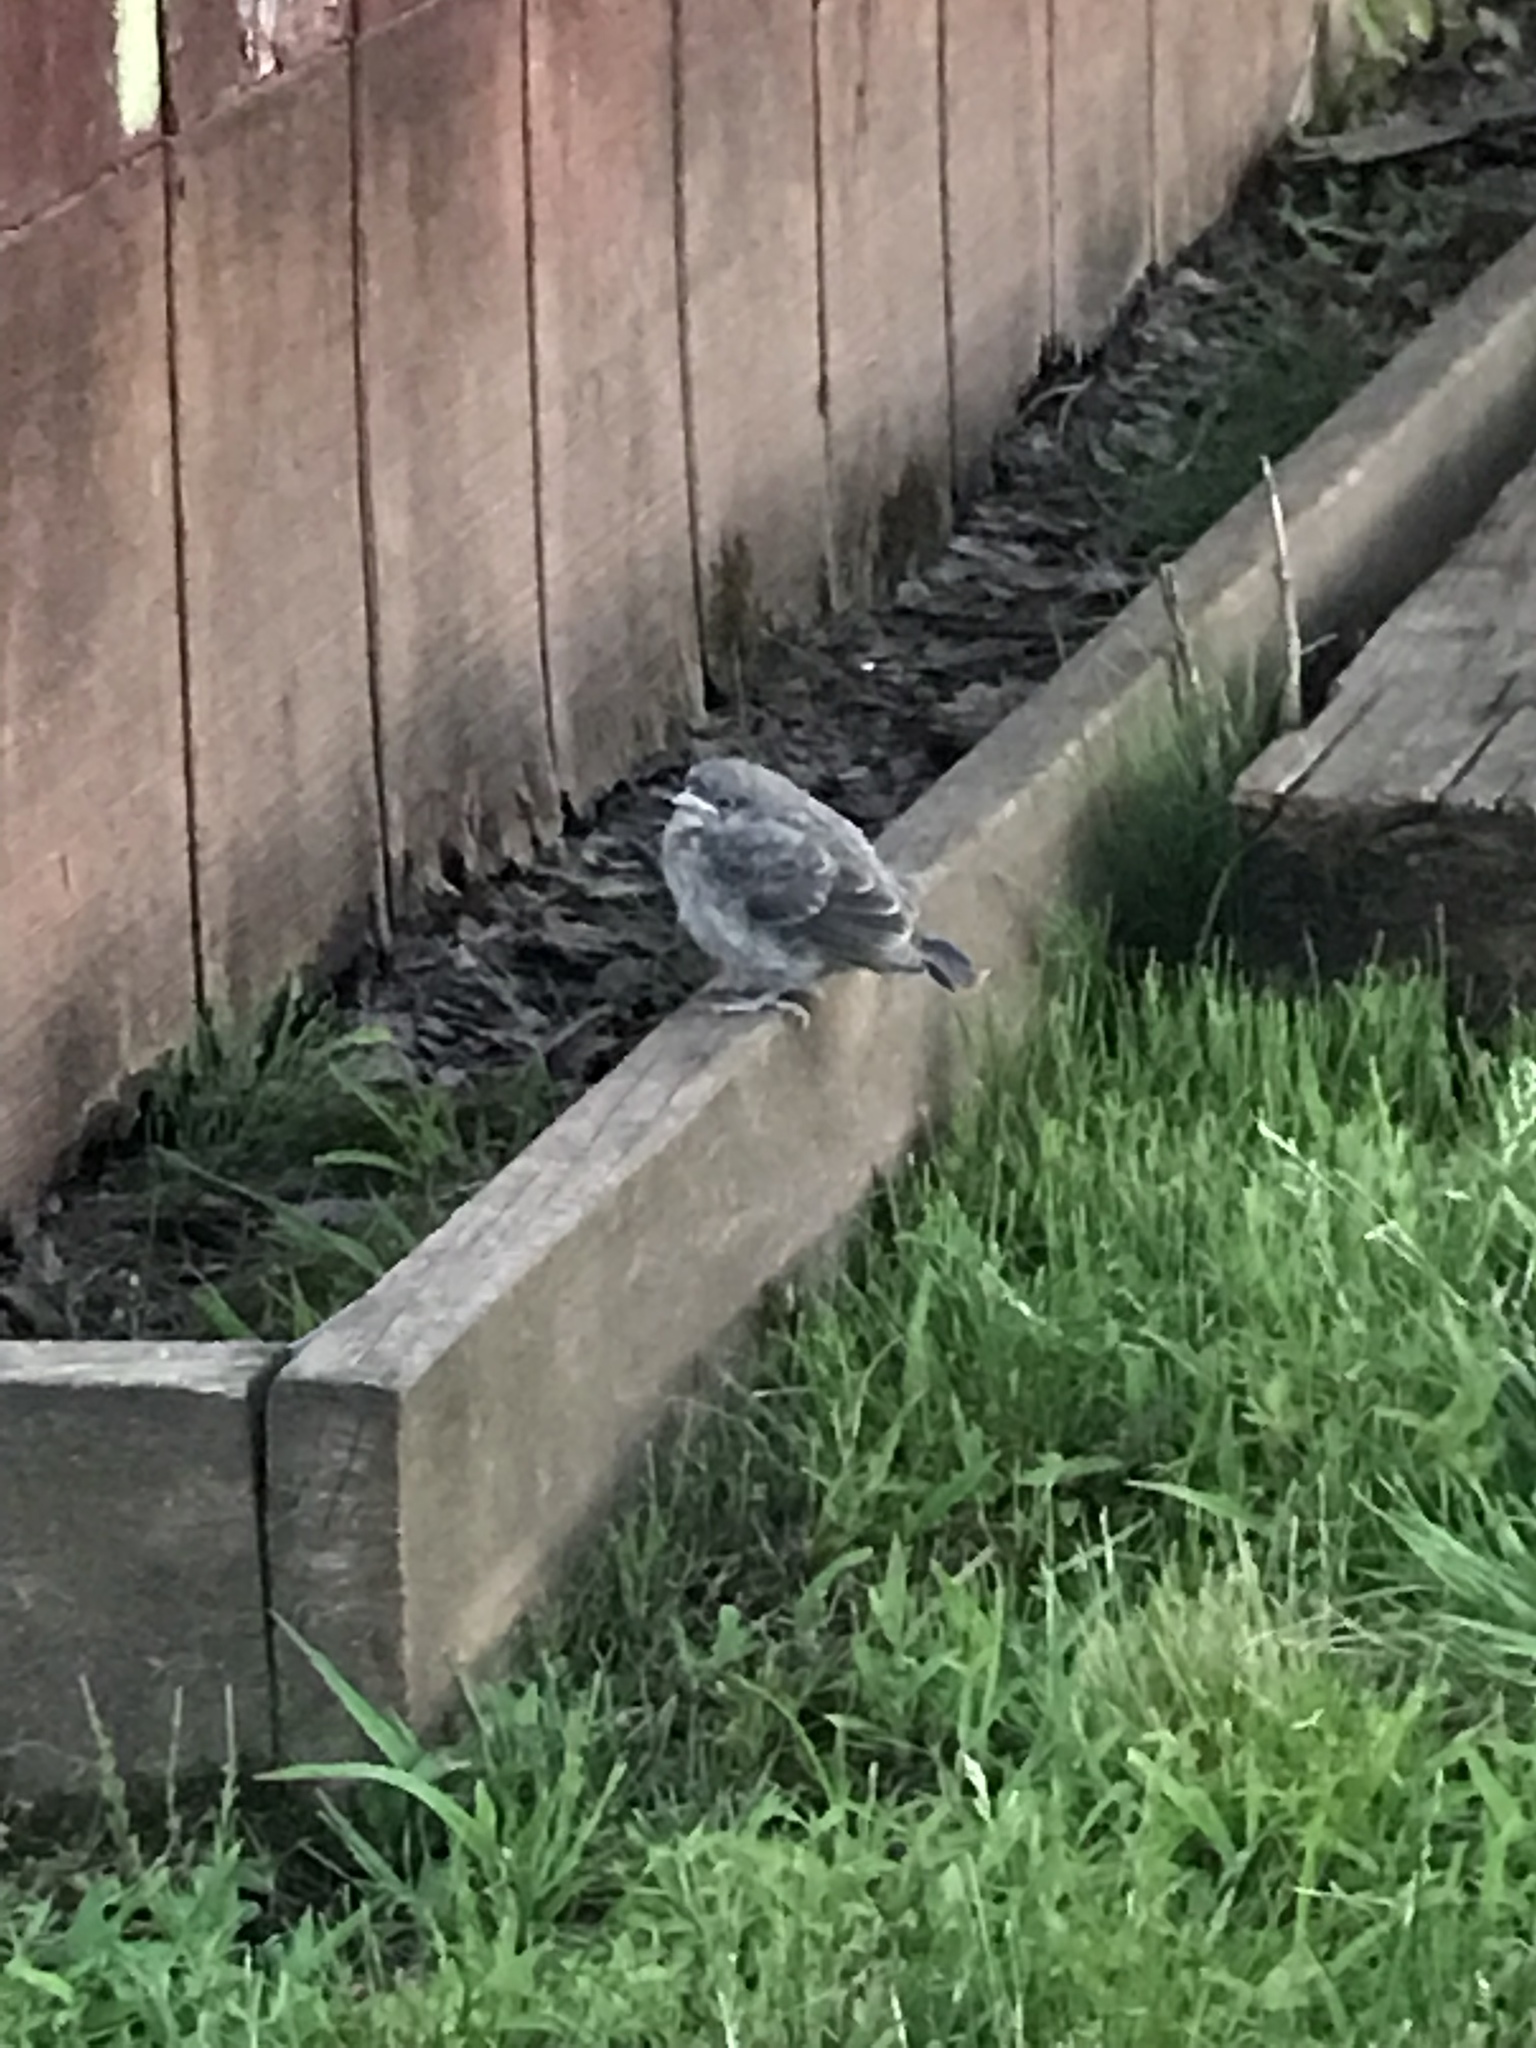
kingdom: Animalia
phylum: Chordata
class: Aves
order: Passeriformes
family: Passeridae
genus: Passer
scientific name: Passer domesticus
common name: House sparrow
